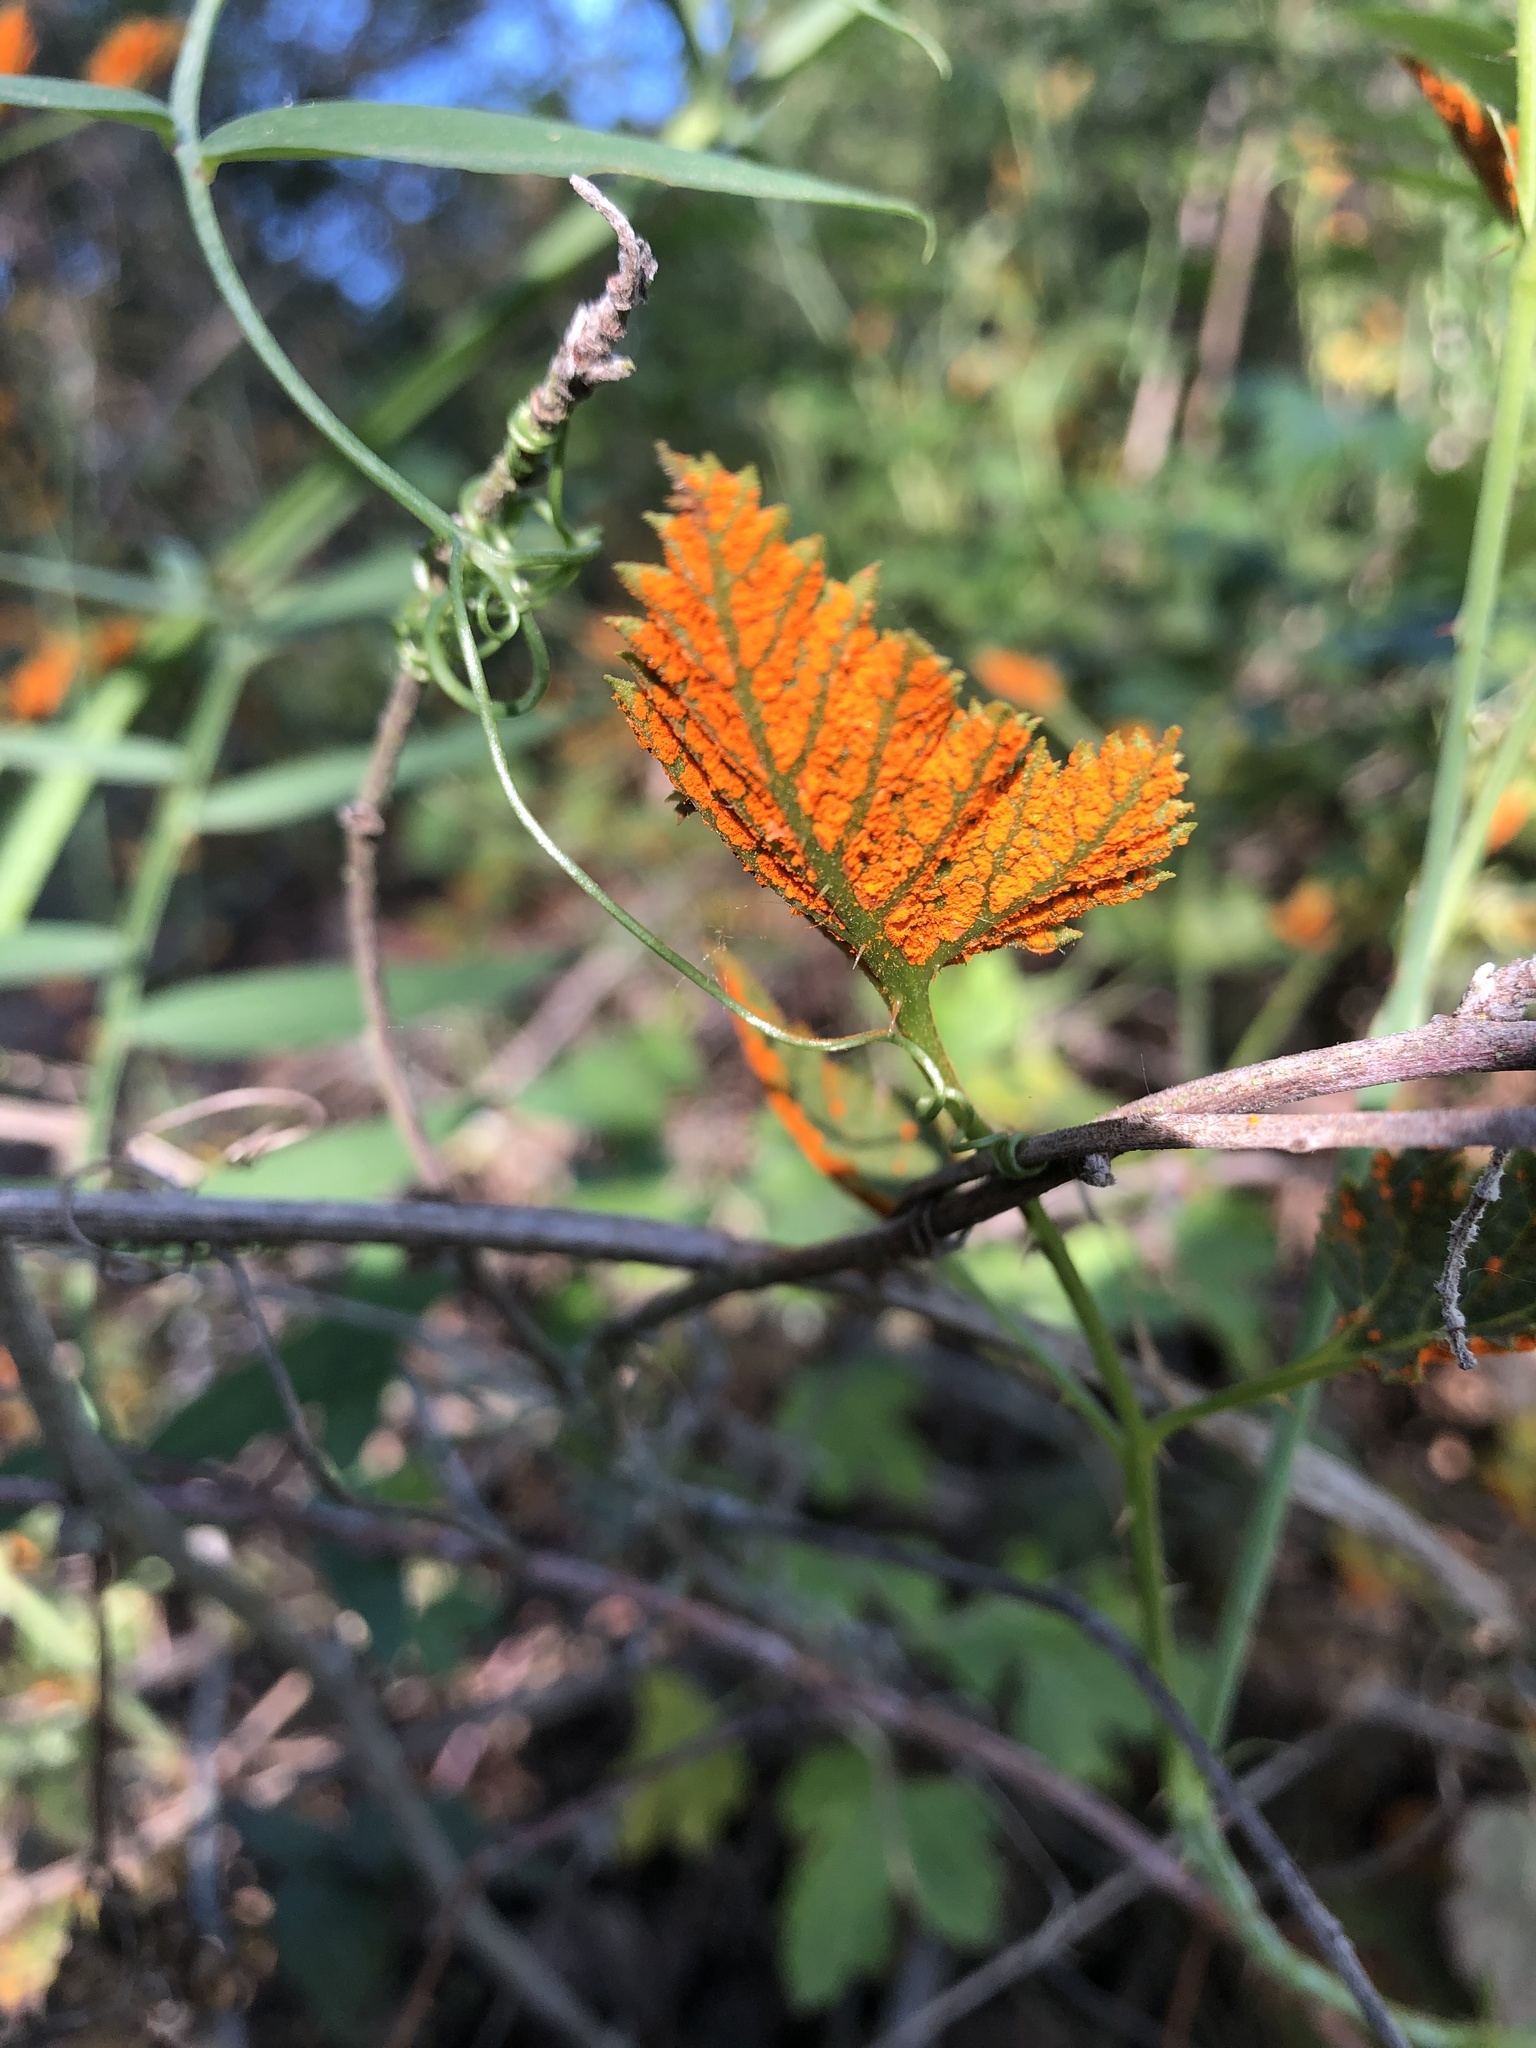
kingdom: Fungi
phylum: Basidiomycota
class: Pucciniomycetes
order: Pucciniales
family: Phragmidiaceae
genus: Arthuriomyces
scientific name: Arthuriomyces peckianus
